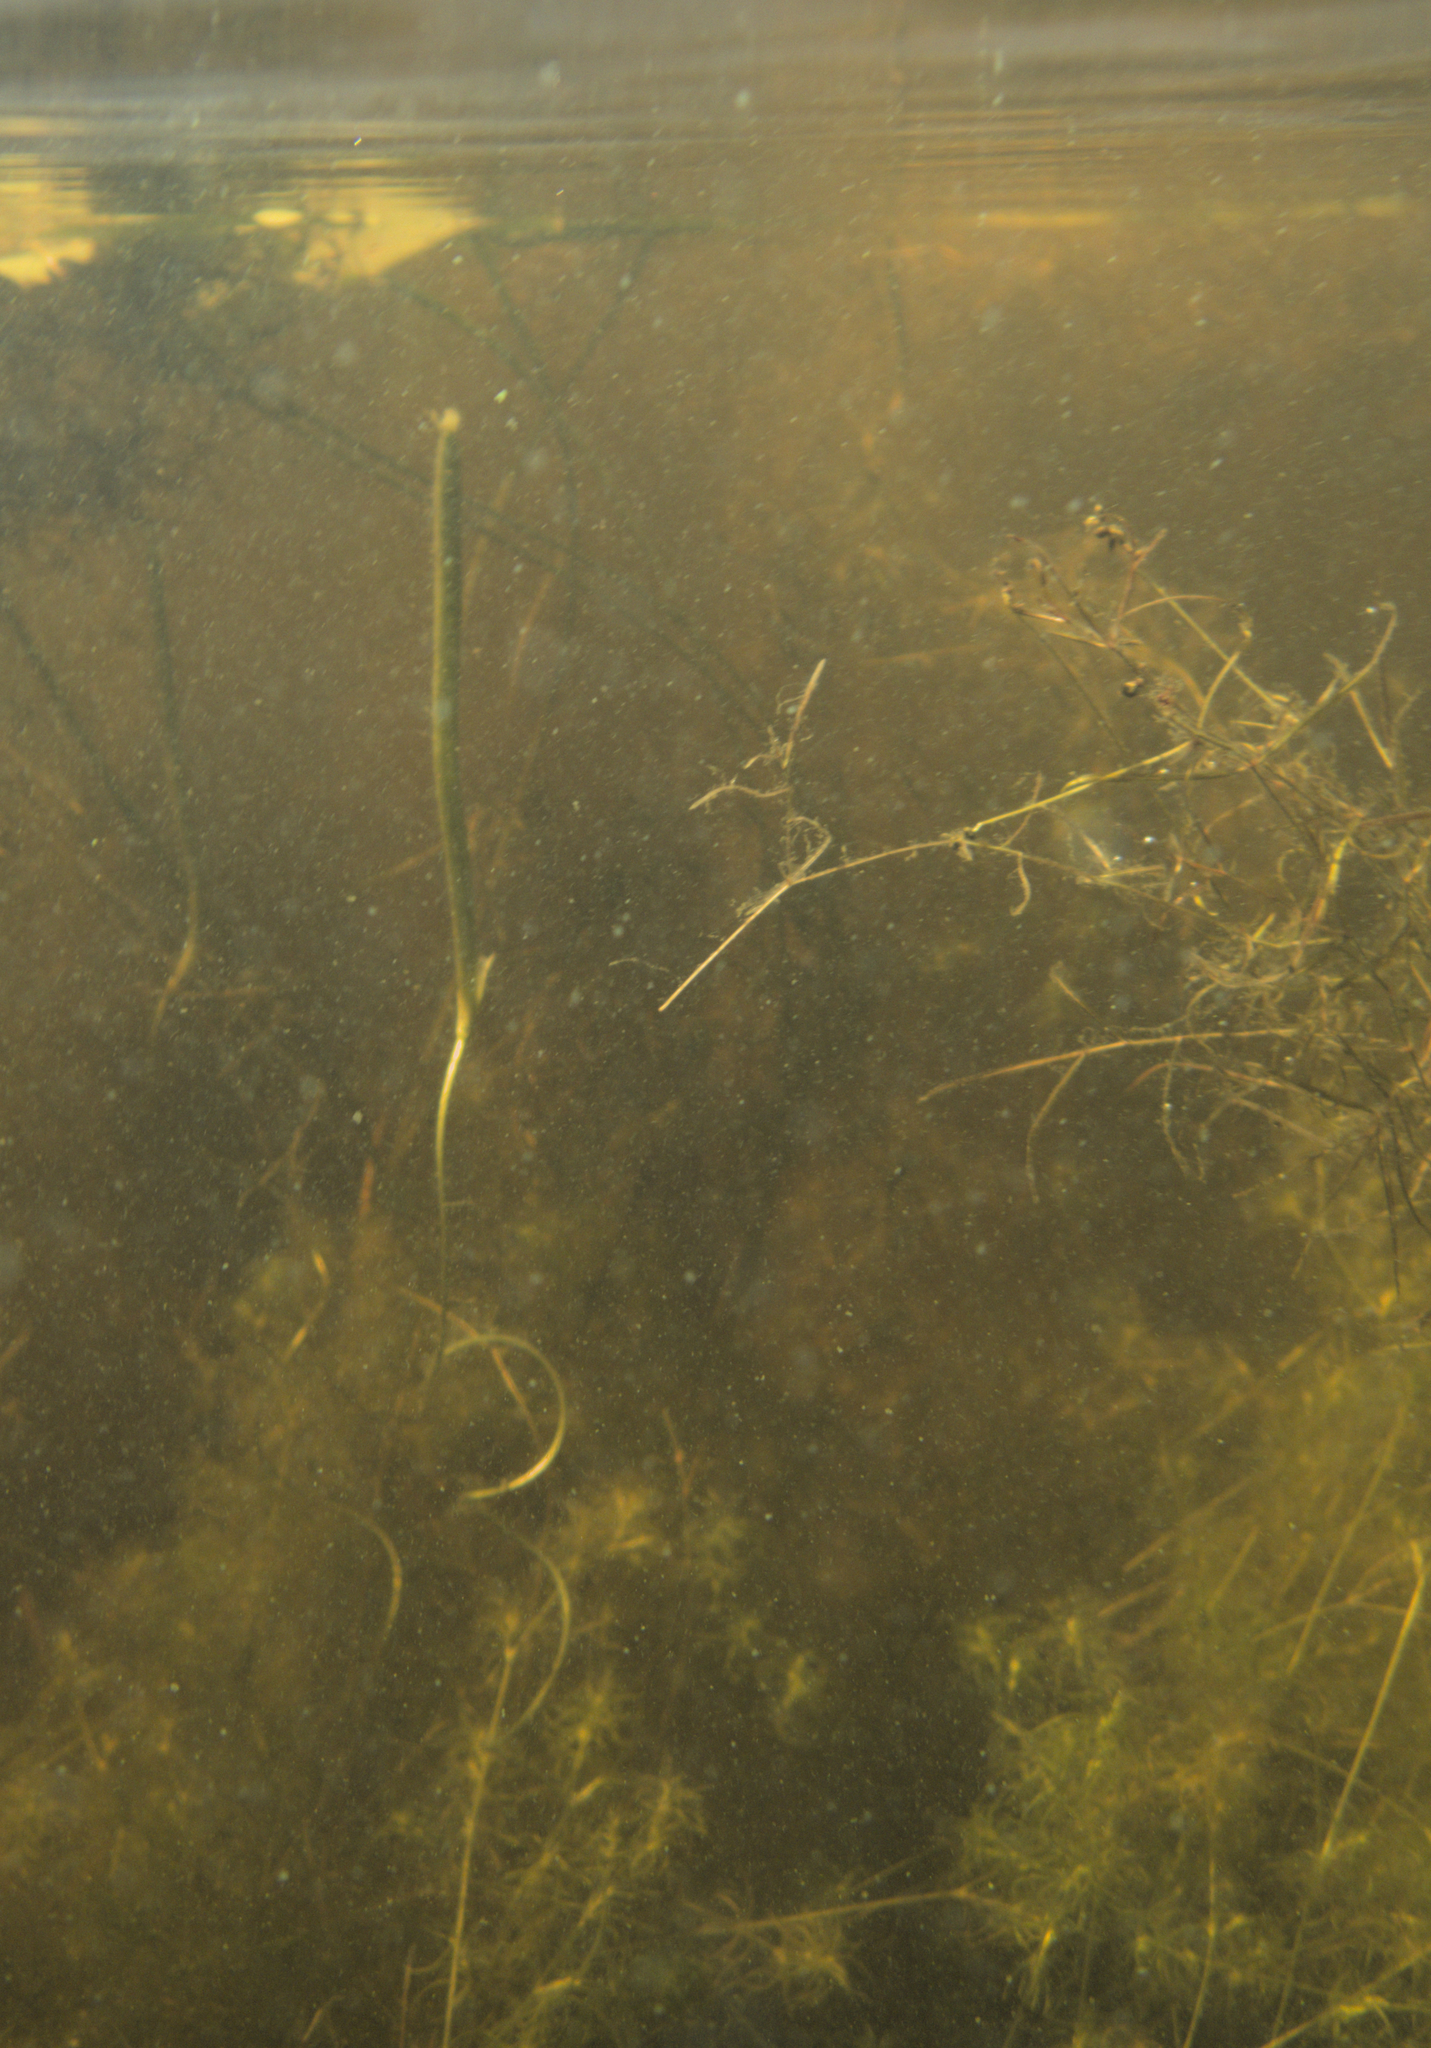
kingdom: Plantae
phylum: Tracheophyta
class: Liliopsida
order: Alismatales
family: Hydrocharitaceae
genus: Vallisneria
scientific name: Vallisneria americana
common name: American eelgrass
